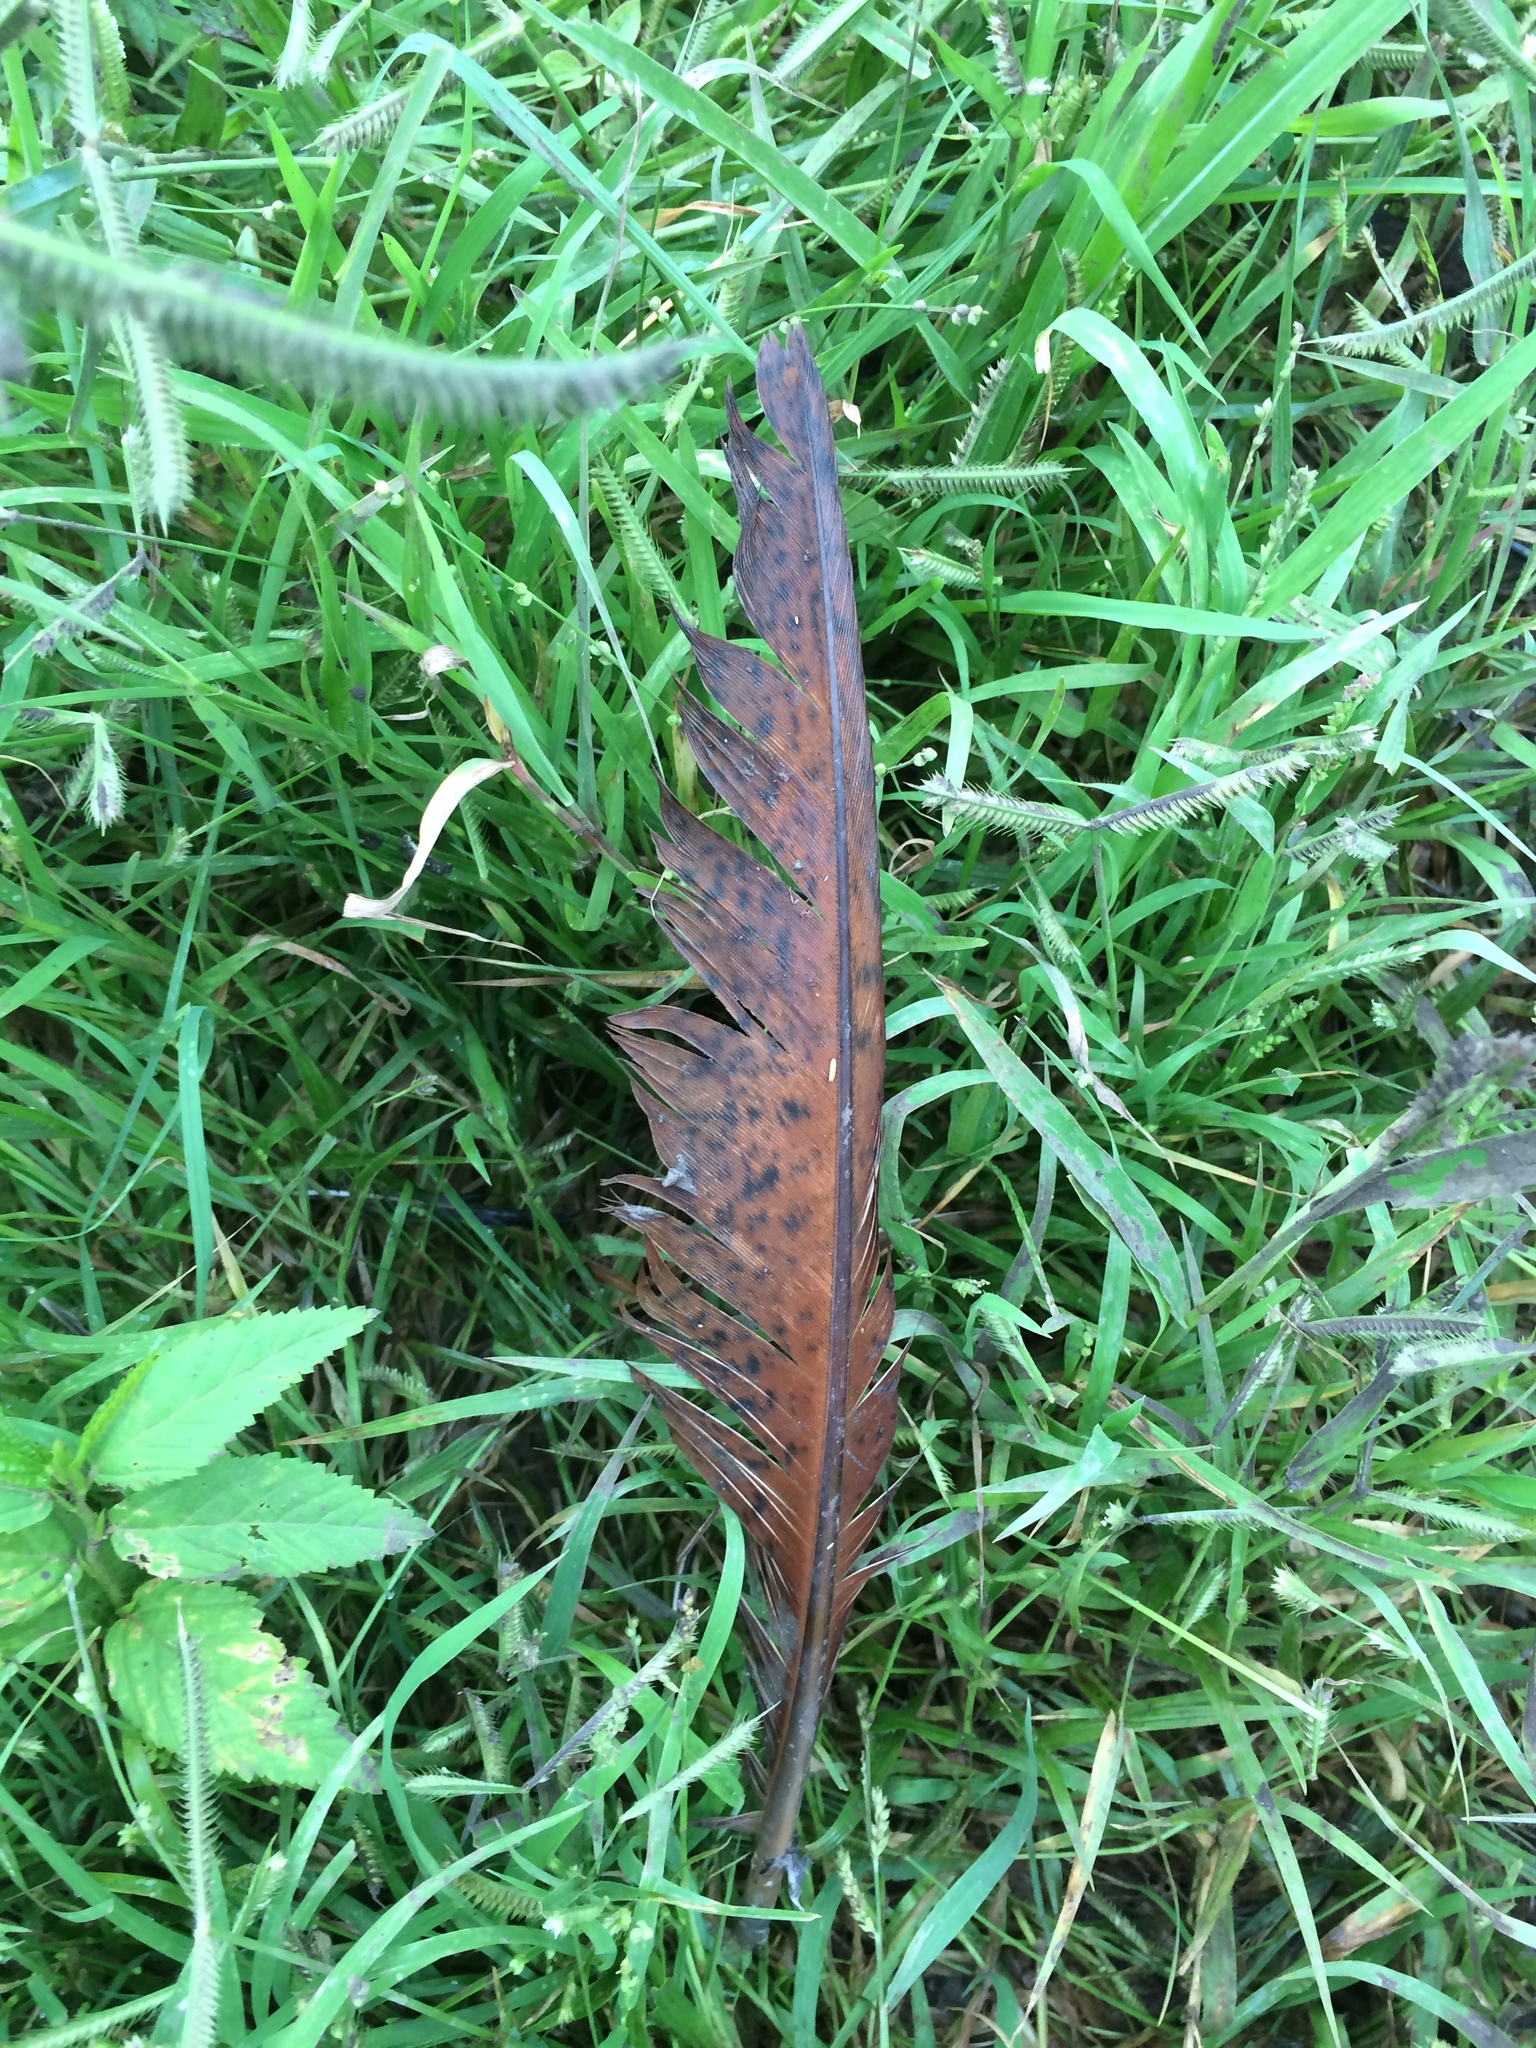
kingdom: Animalia
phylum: Chordata
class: Aves
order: Galliformes
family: Phasianidae
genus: Pavo
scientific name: Pavo cristatus
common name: Indian peafowl
